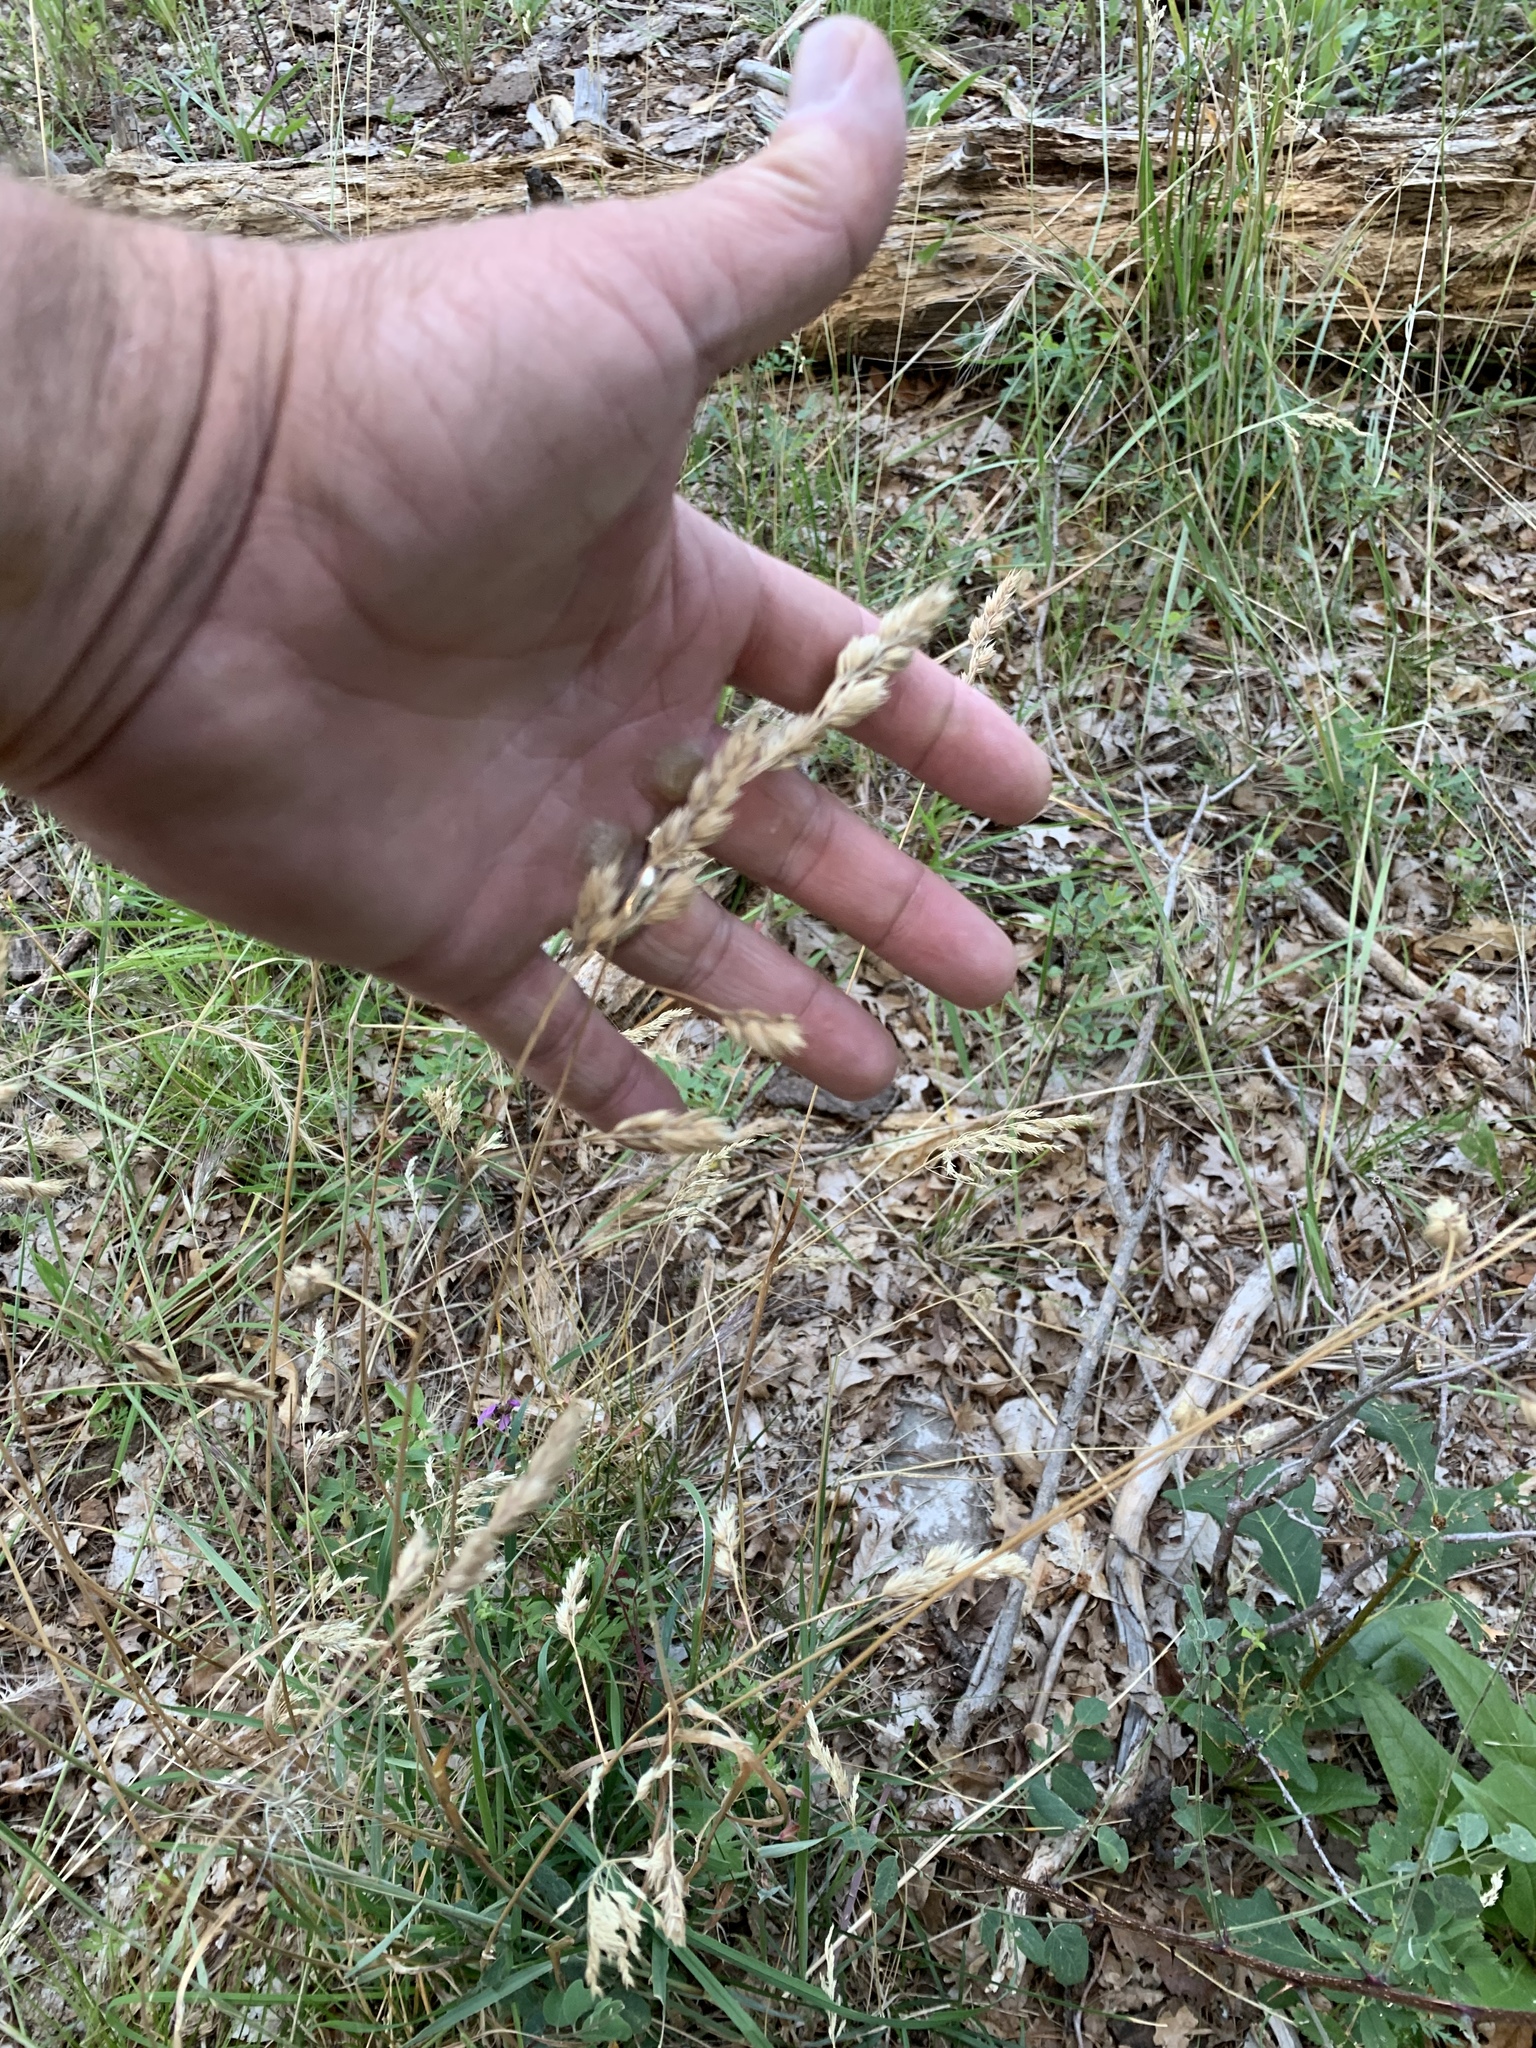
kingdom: Plantae
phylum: Tracheophyta
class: Liliopsida
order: Poales
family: Poaceae
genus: Dactylis
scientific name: Dactylis glomerata
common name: Orchardgrass
